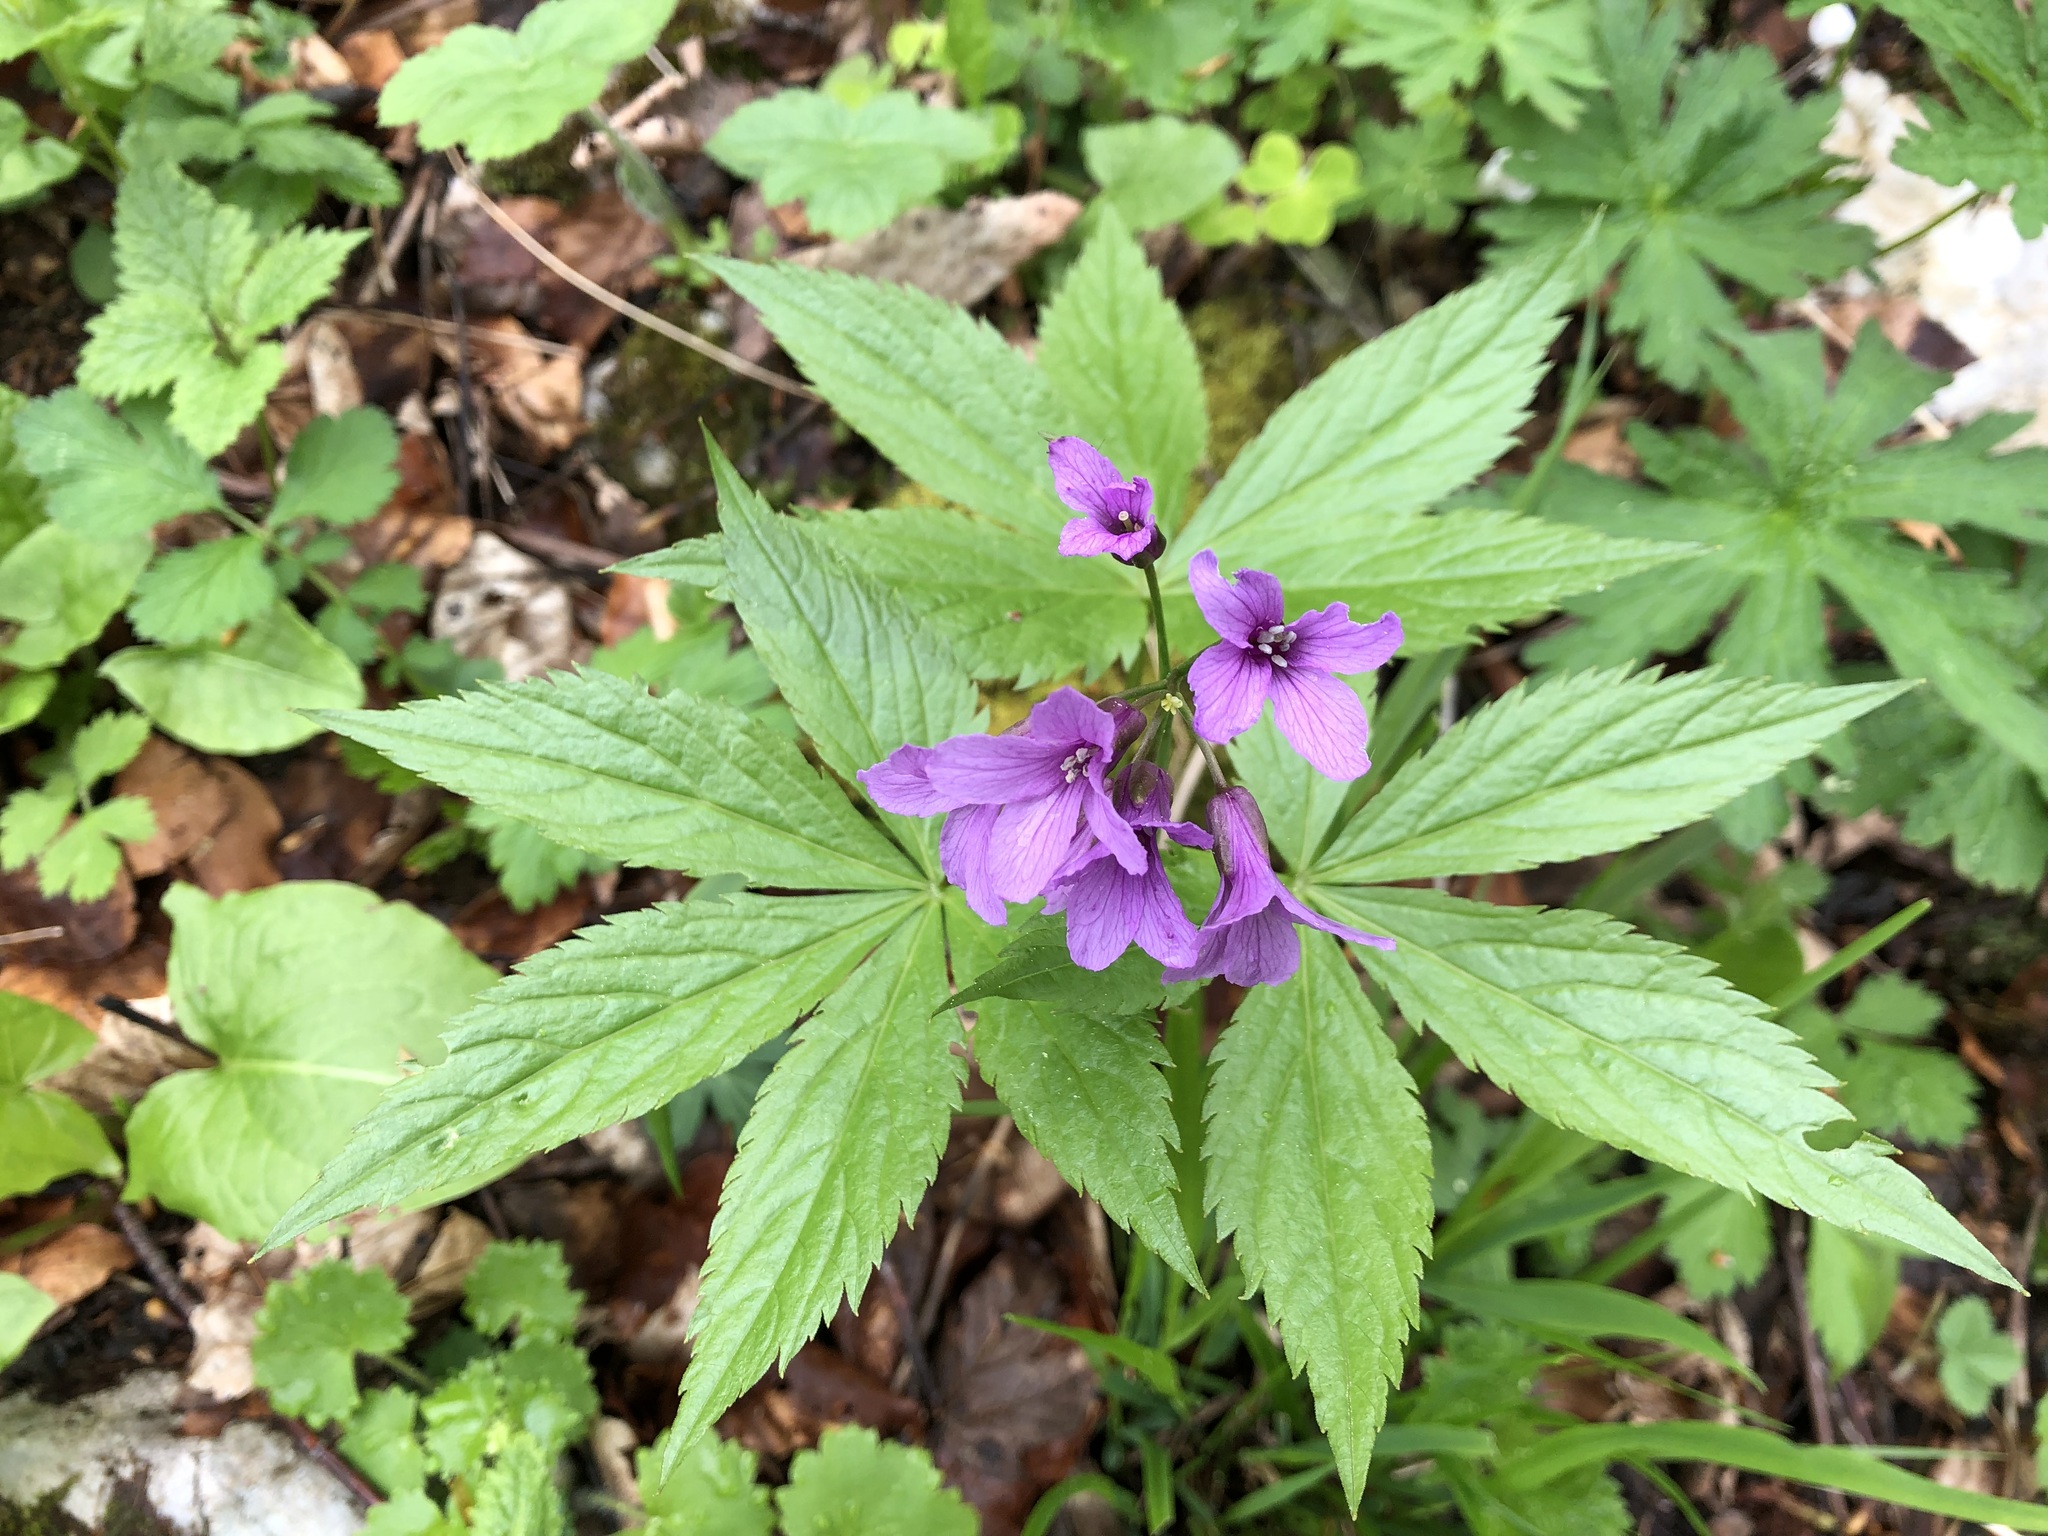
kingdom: Plantae
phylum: Tracheophyta
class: Magnoliopsida
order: Brassicales
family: Brassicaceae
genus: Cardamine
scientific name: Cardamine pentaphyllos
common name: Five-leaflet bitter-cress
